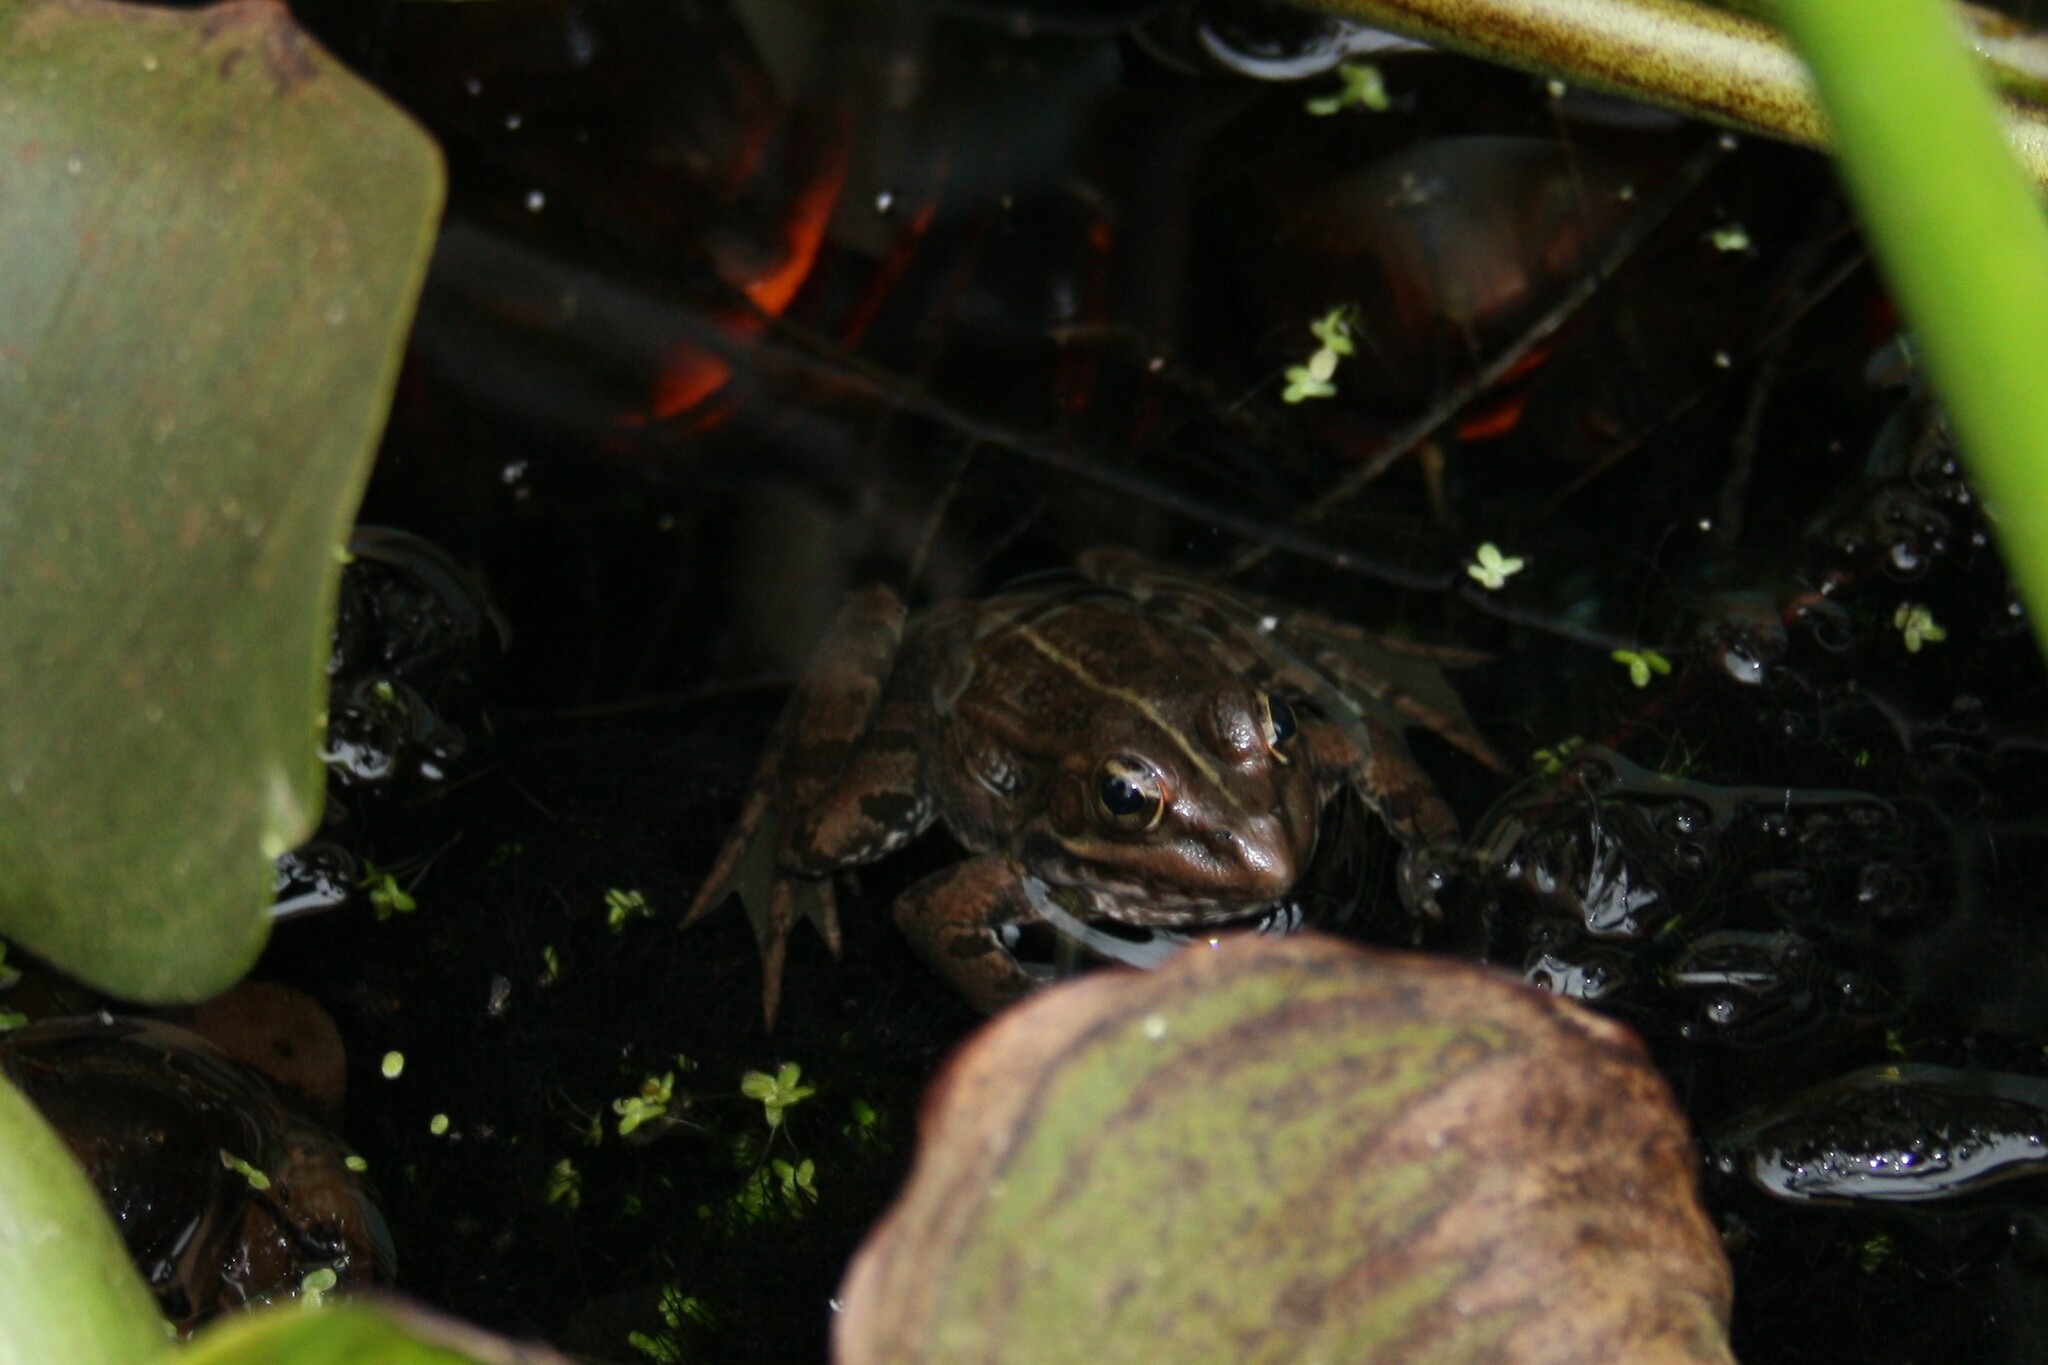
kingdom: Animalia
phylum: Chordata
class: Amphibia
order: Anura
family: Ranidae
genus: Pelophylax
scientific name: Pelophylax perezi
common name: Perez's frog
